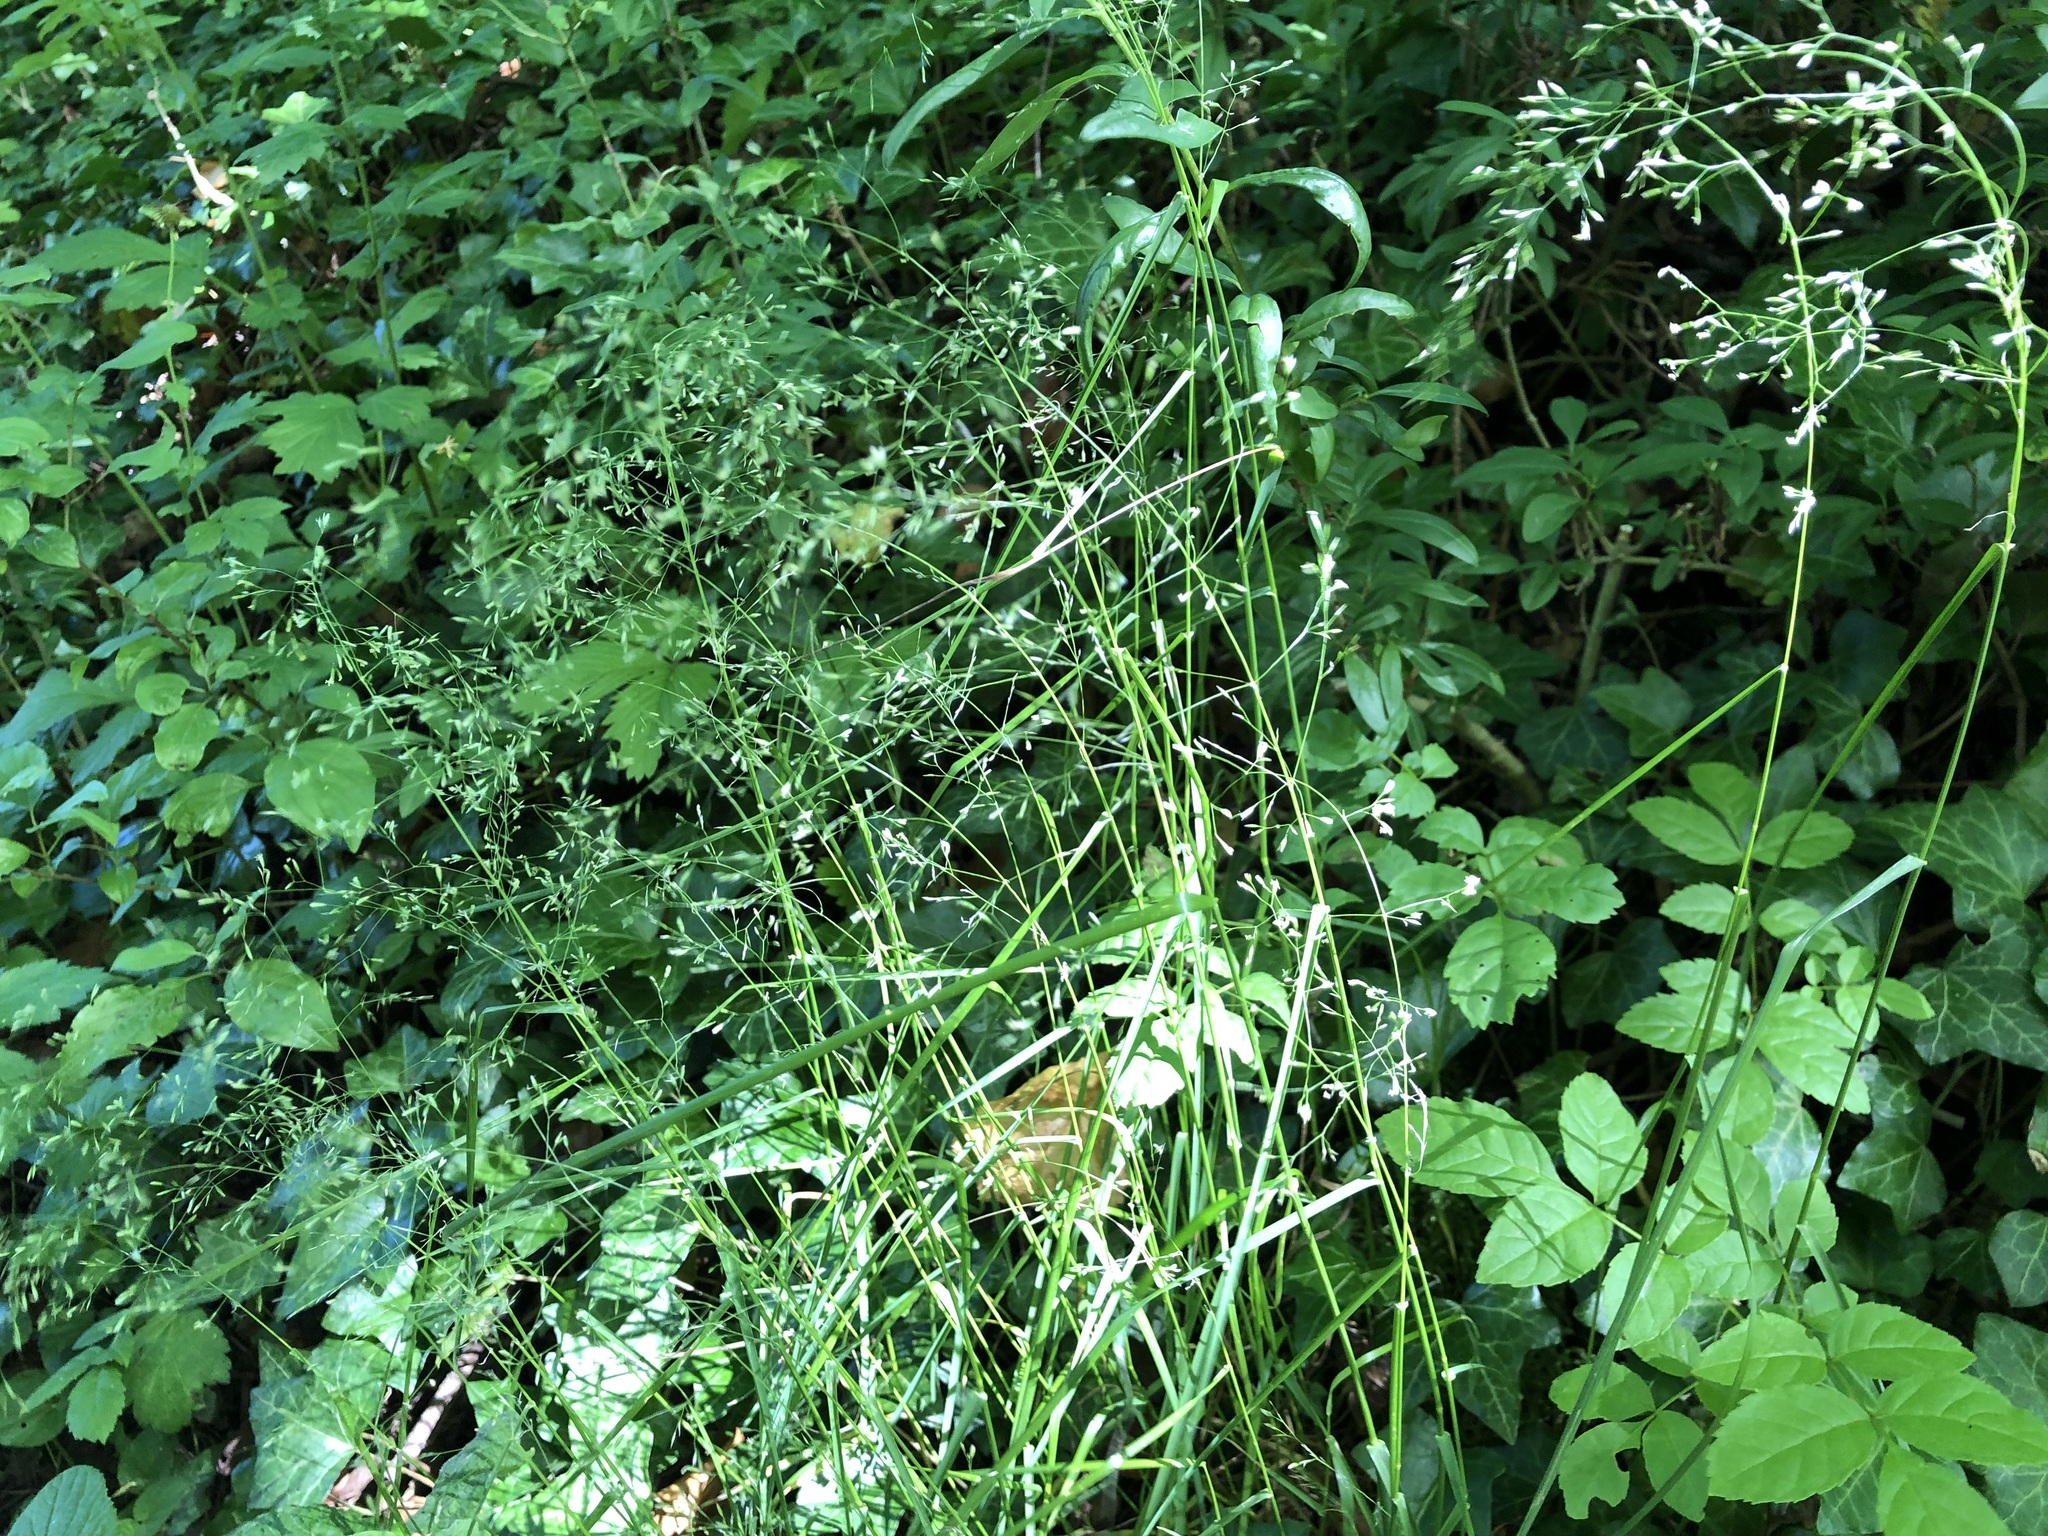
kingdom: Plantae
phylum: Tracheophyta
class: Liliopsida
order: Poales
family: Poaceae
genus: Poa
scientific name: Poa nemoralis
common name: Wood bluegrass
